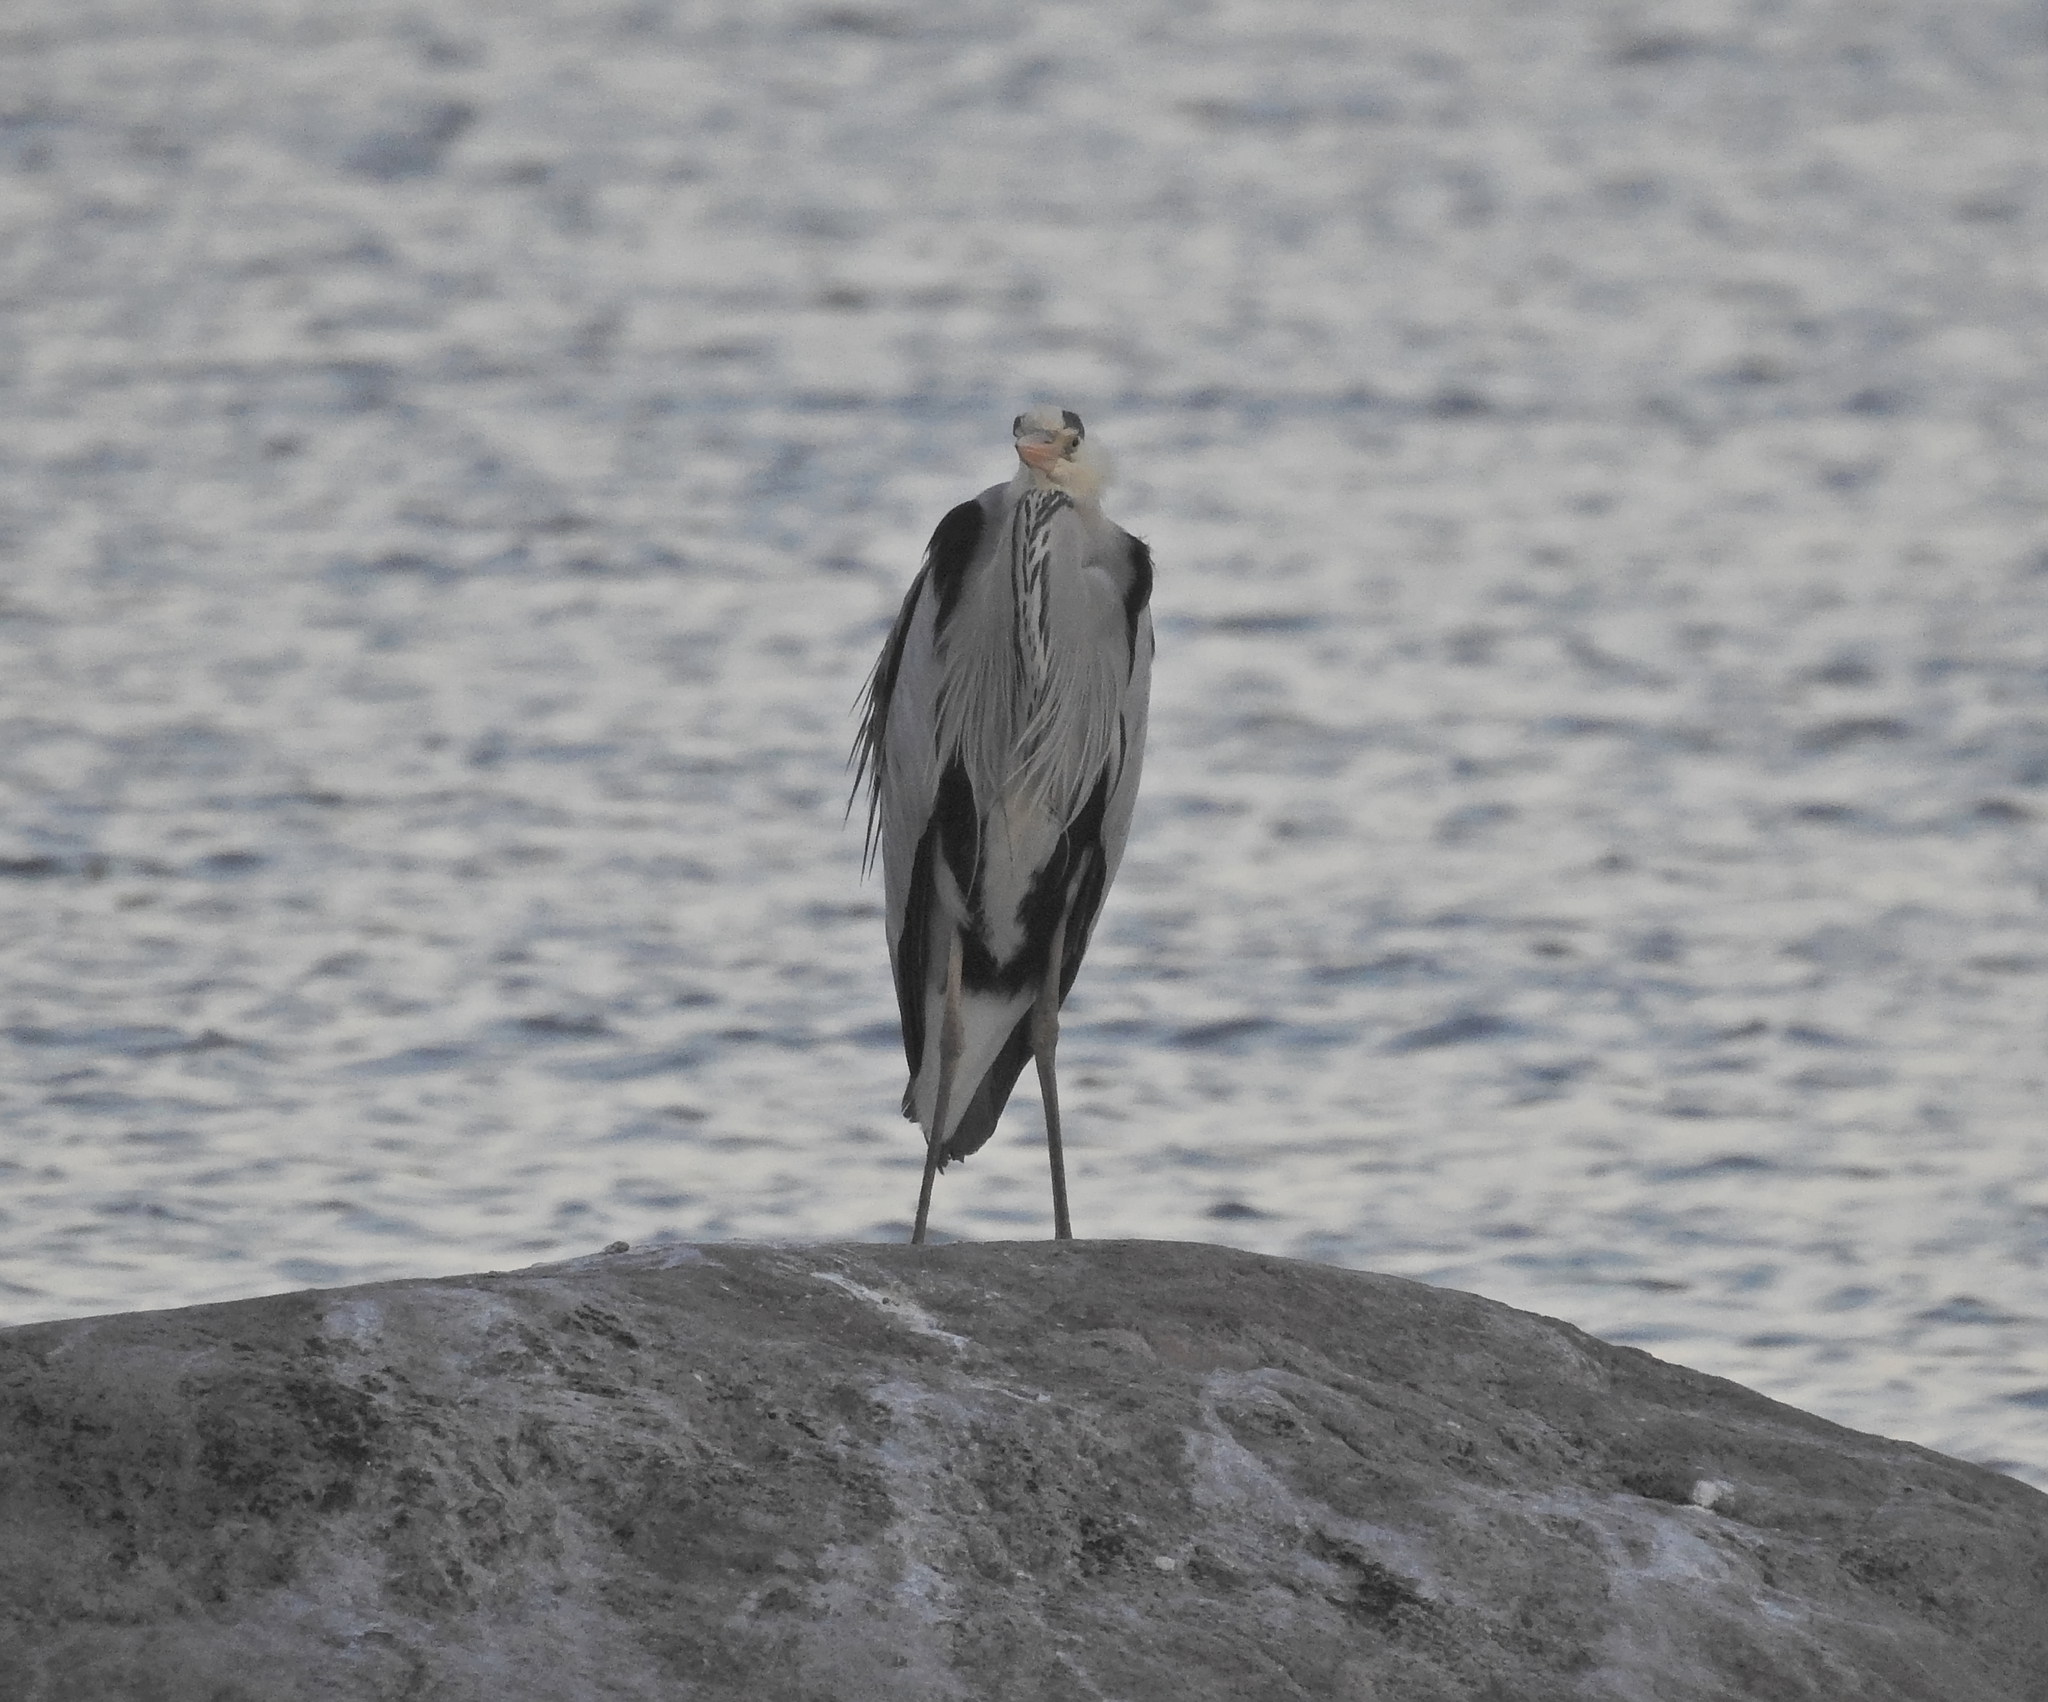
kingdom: Animalia
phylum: Chordata
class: Aves
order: Pelecaniformes
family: Ardeidae
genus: Ardea
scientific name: Ardea cinerea
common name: Grey heron
